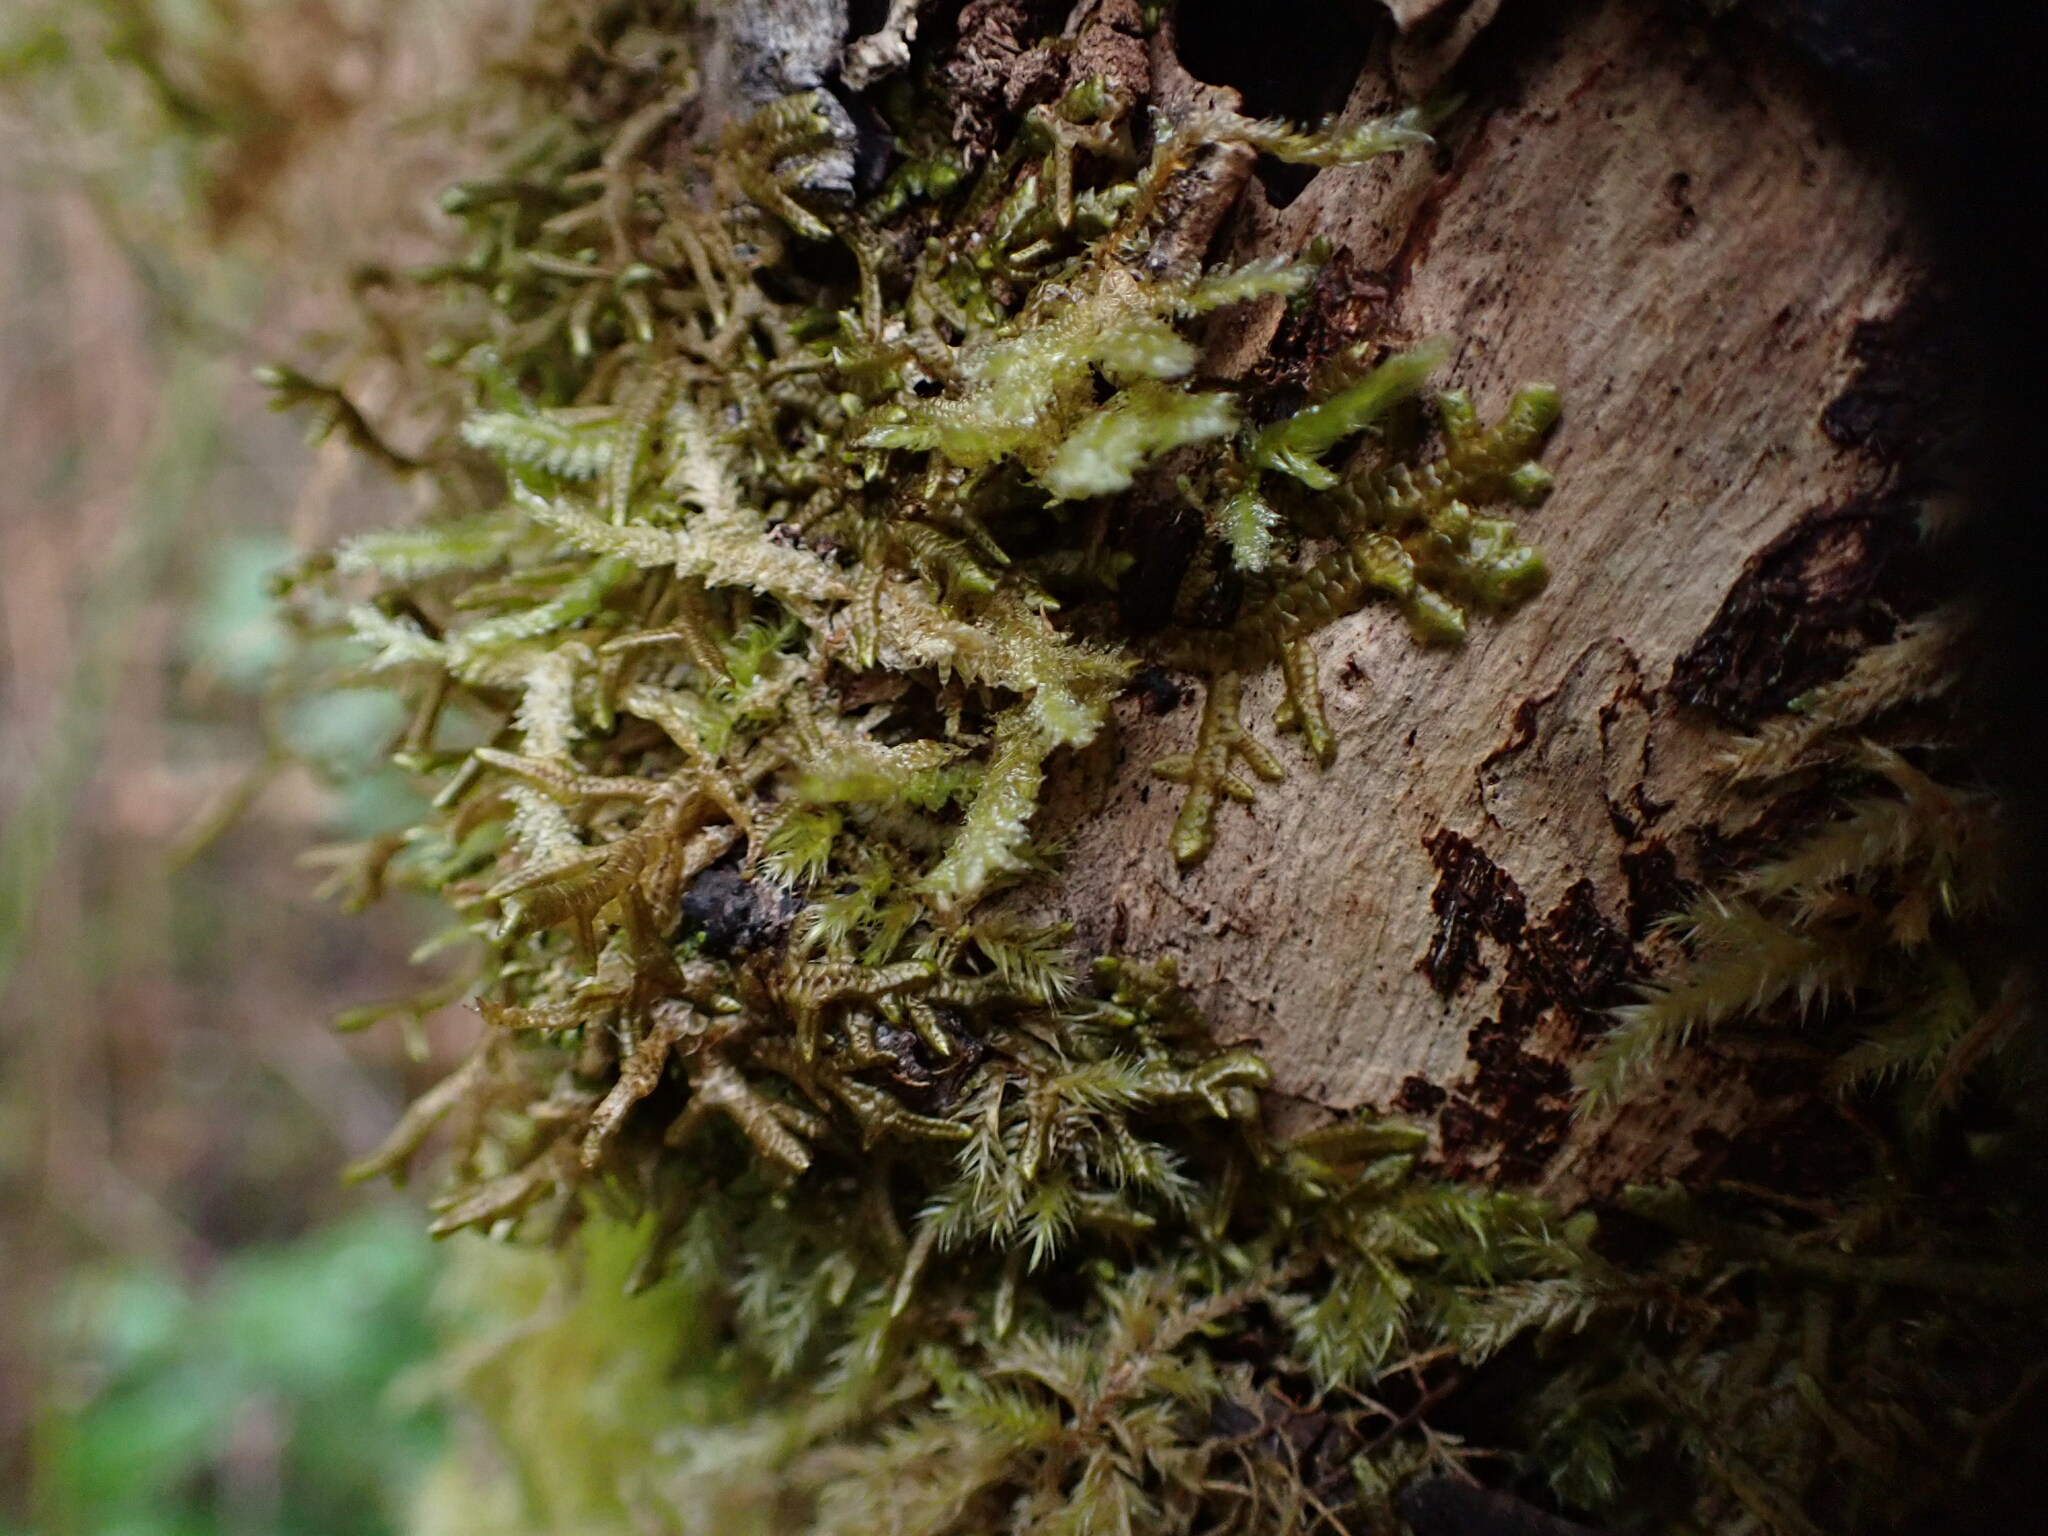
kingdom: Plantae
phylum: Bryophyta
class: Bryopsida
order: Hypnales
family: Neckeraceae
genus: Neckera
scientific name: Neckera douglasii
